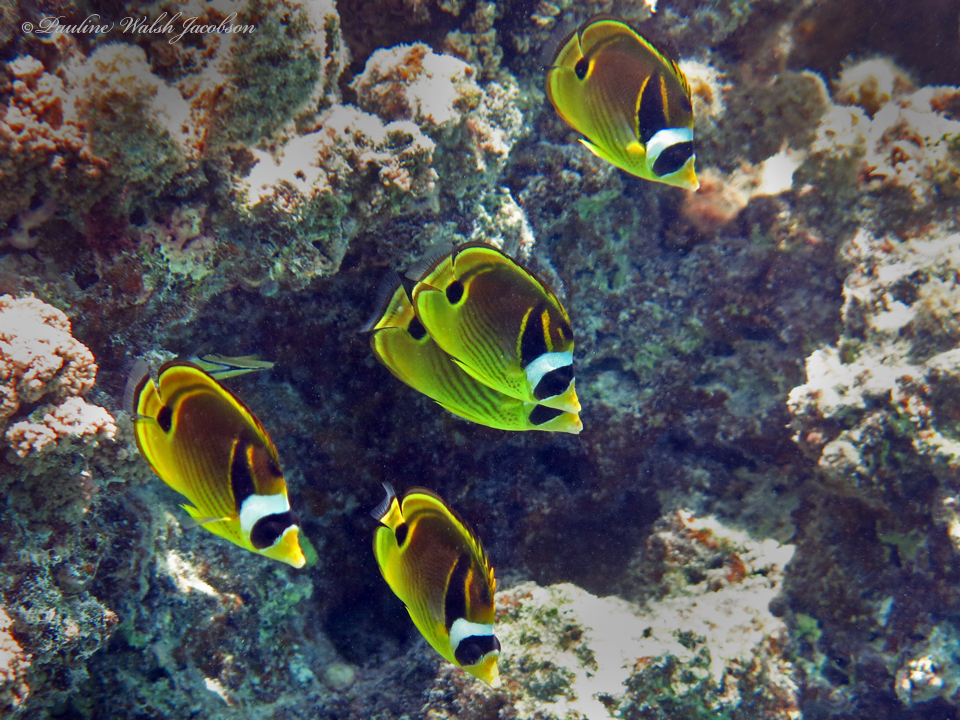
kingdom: Animalia
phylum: Chordata
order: Perciformes
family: Chaetodontidae
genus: Chaetodon
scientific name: Chaetodon lunula
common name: Raccoon butterflyfish
